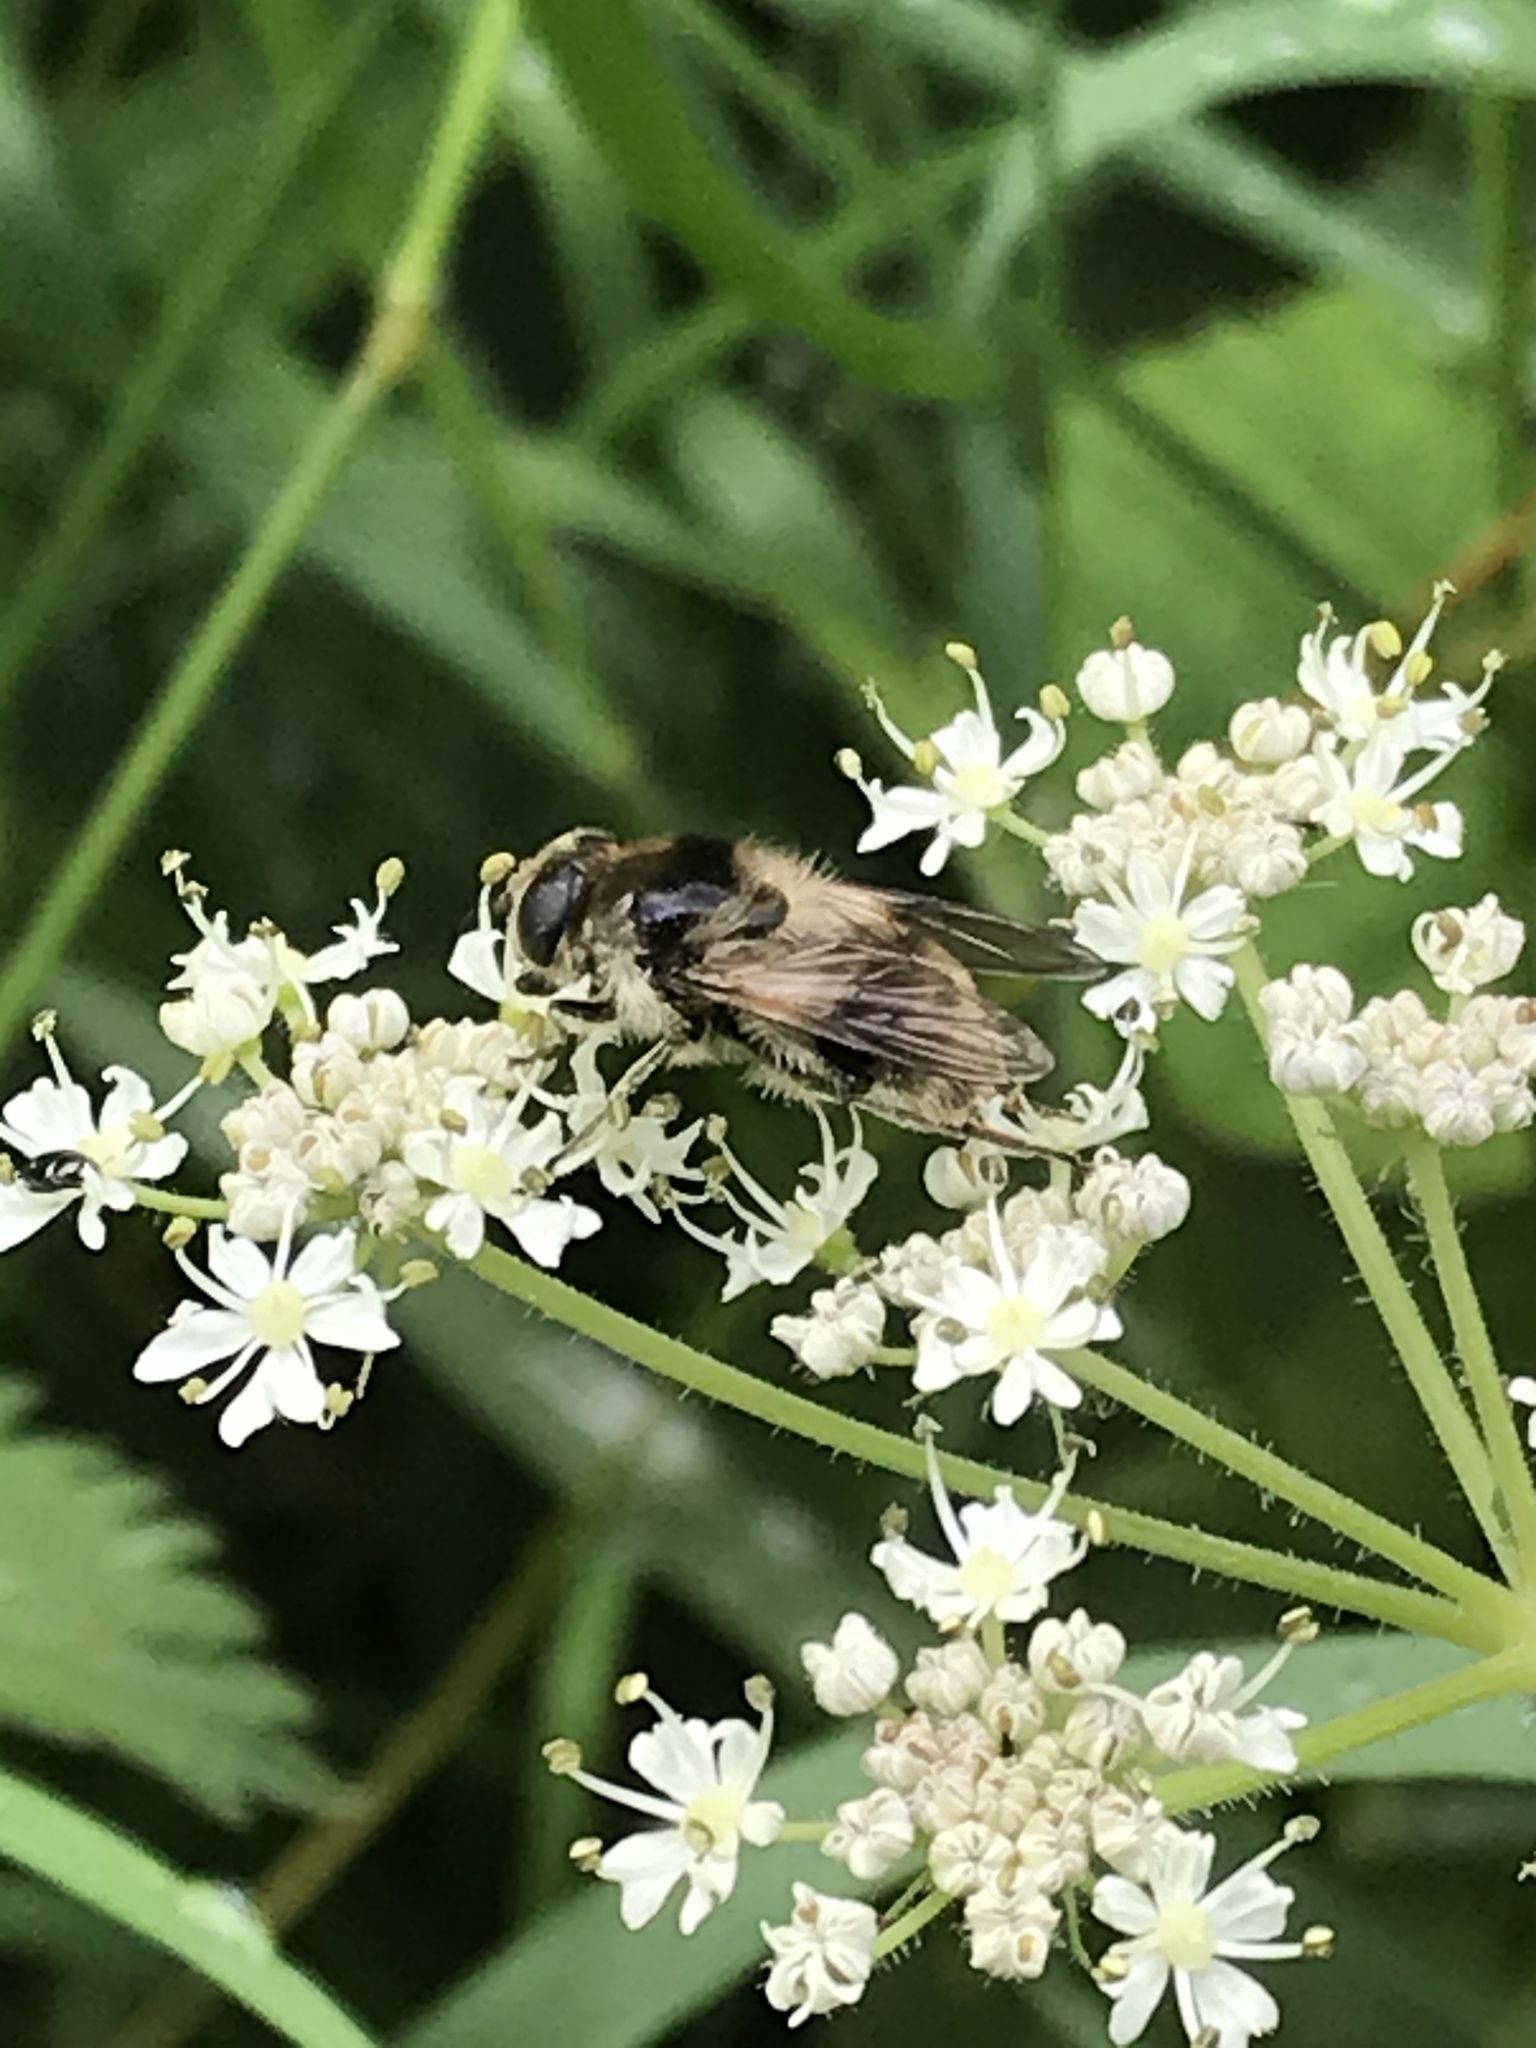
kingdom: Animalia
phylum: Arthropoda
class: Insecta
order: Diptera
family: Syrphidae
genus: Cheilosia
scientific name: Cheilosia illustrata
